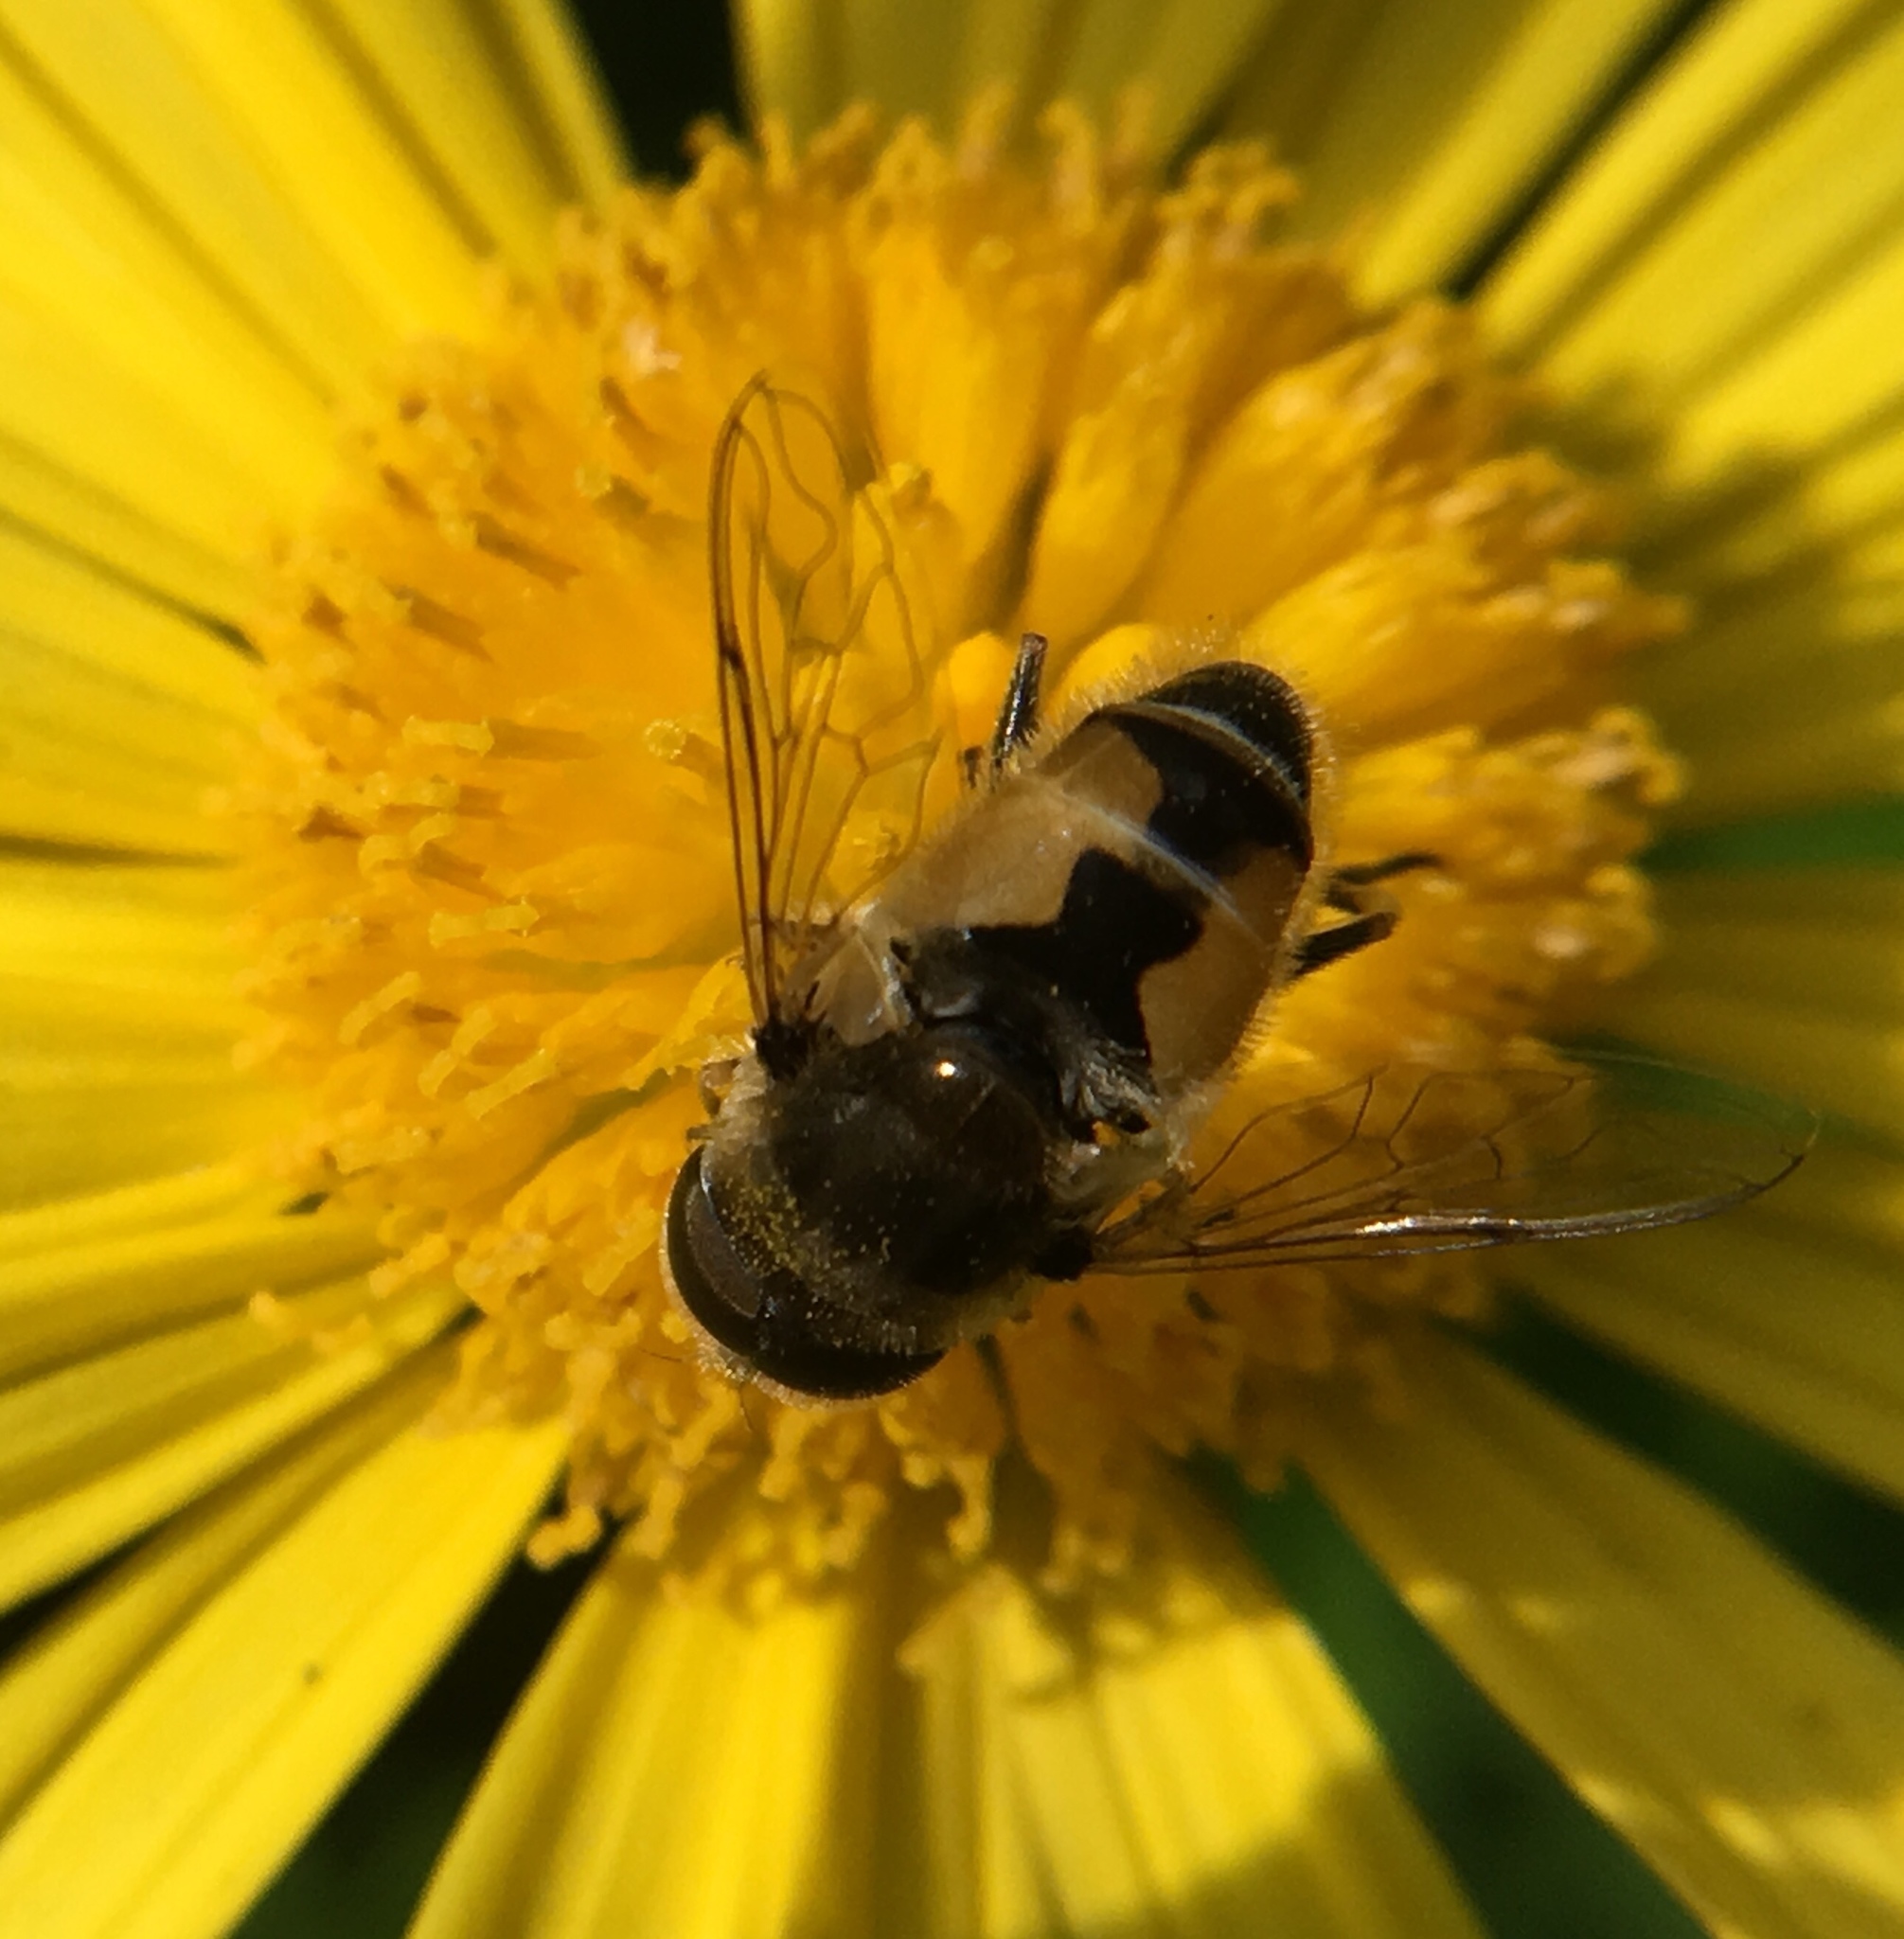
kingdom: Animalia
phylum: Arthropoda
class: Insecta
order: Diptera
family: Syrphidae
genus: Eristalis
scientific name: Eristalis arbustorum
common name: Hover fly
